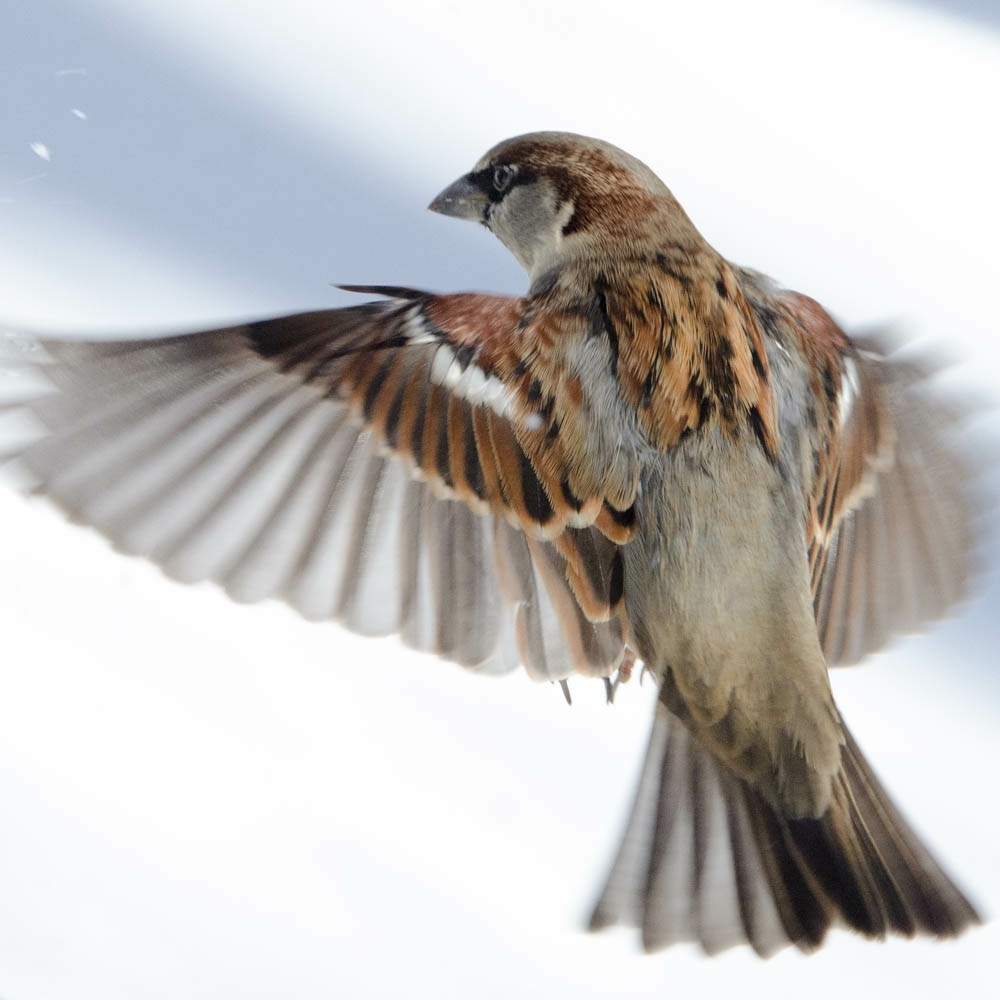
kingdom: Animalia
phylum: Chordata
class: Aves
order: Passeriformes
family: Passeridae
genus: Passer
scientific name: Passer domesticus
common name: House sparrow
